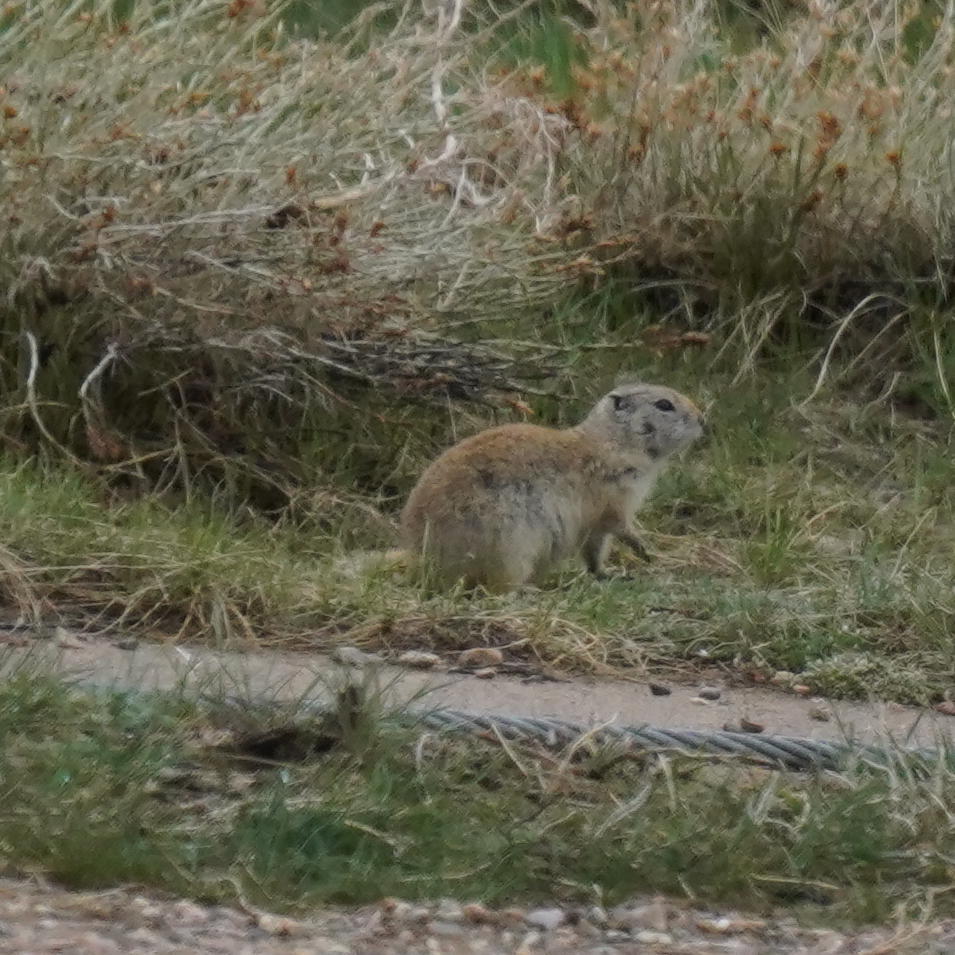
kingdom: Animalia
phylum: Chordata
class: Mammalia
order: Rodentia
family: Sciuridae
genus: Cynomys
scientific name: Cynomys leucurus
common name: White-tailed prairie dog
